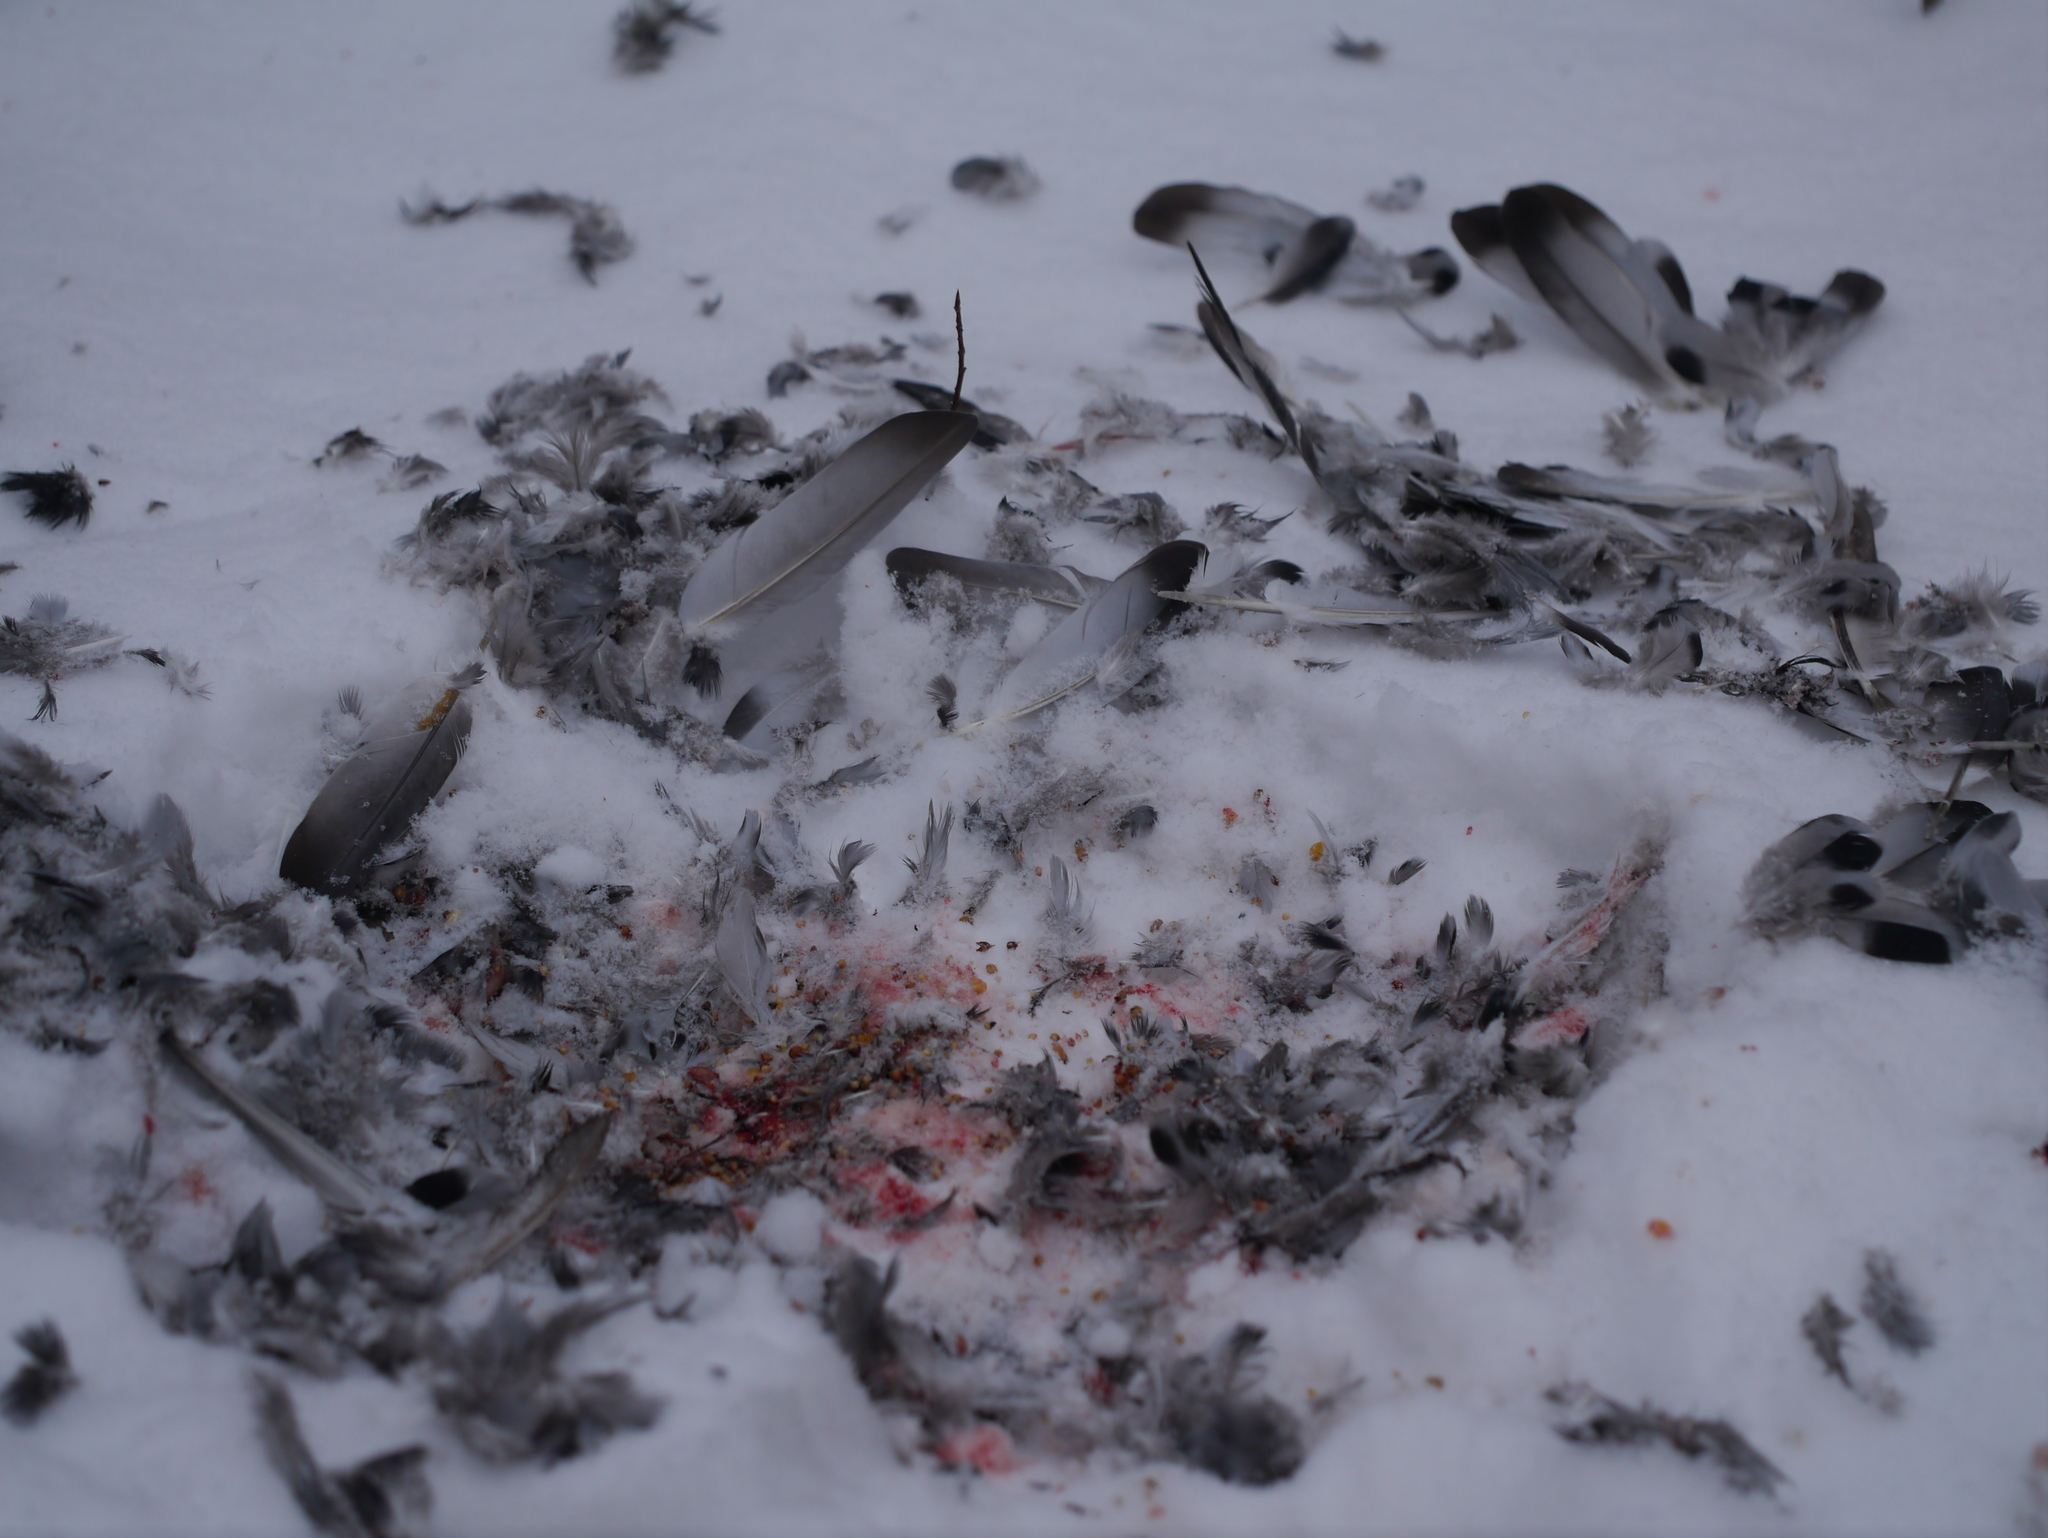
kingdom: Animalia
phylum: Chordata
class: Aves
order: Columbiformes
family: Columbidae
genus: Columba
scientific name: Columba livia
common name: Rock pigeon
